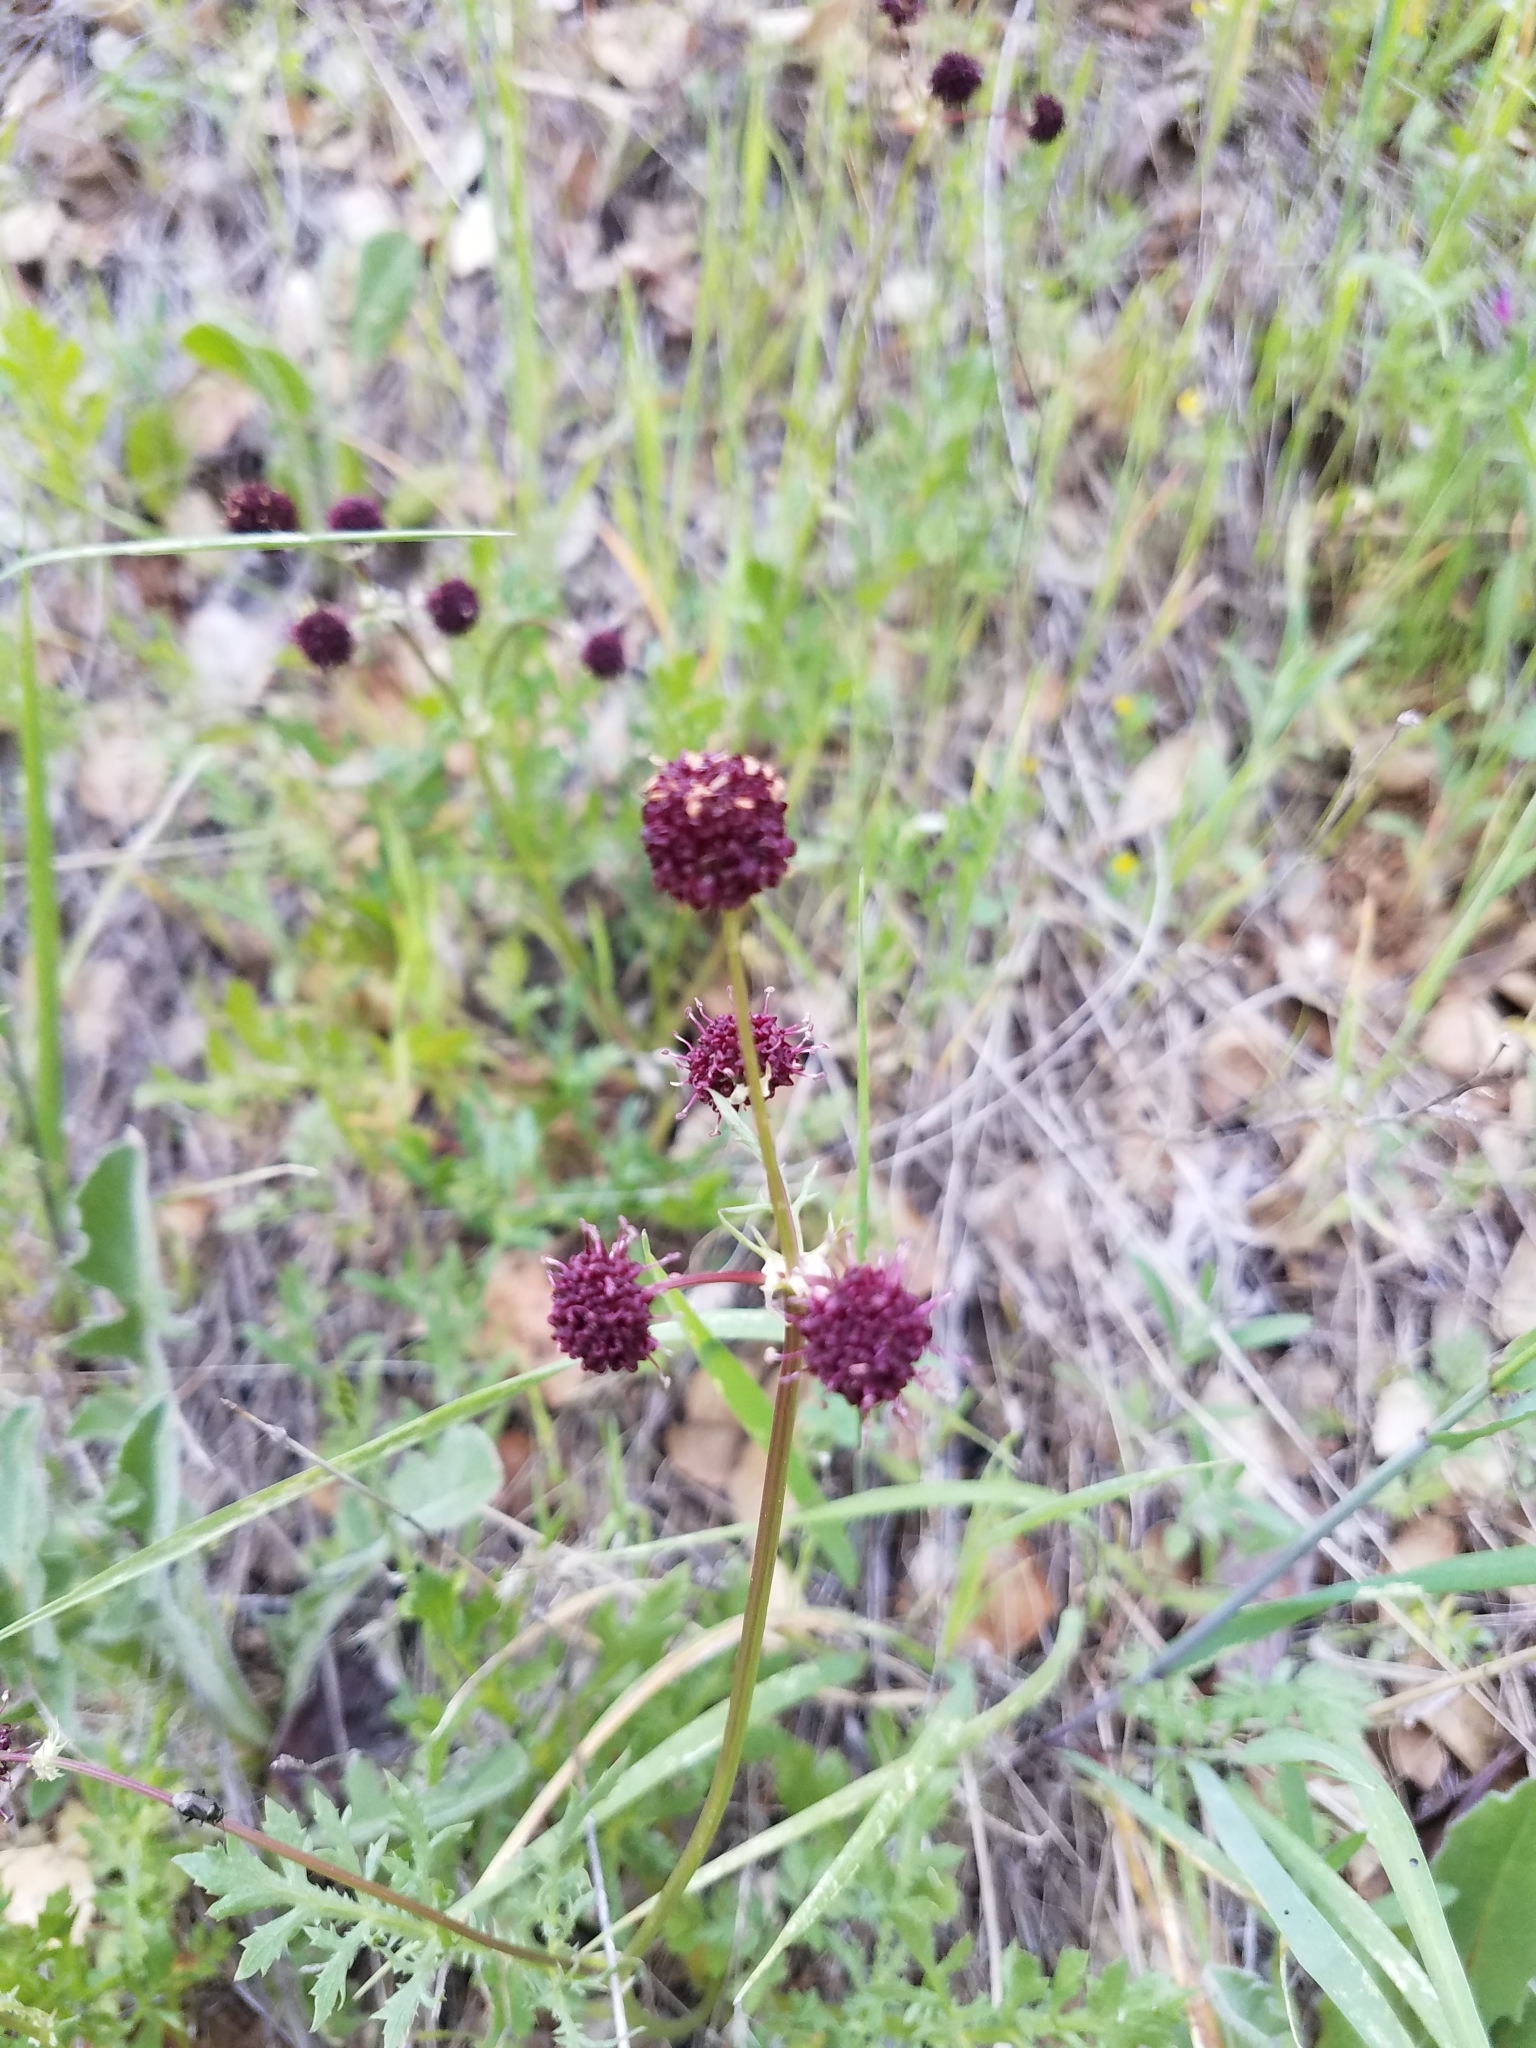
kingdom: Plantae
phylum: Tracheophyta
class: Magnoliopsida
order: Apiales
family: Apiaceae
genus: Sanicula
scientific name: Sanicula bipinnatifida
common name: Shoe-buttons
